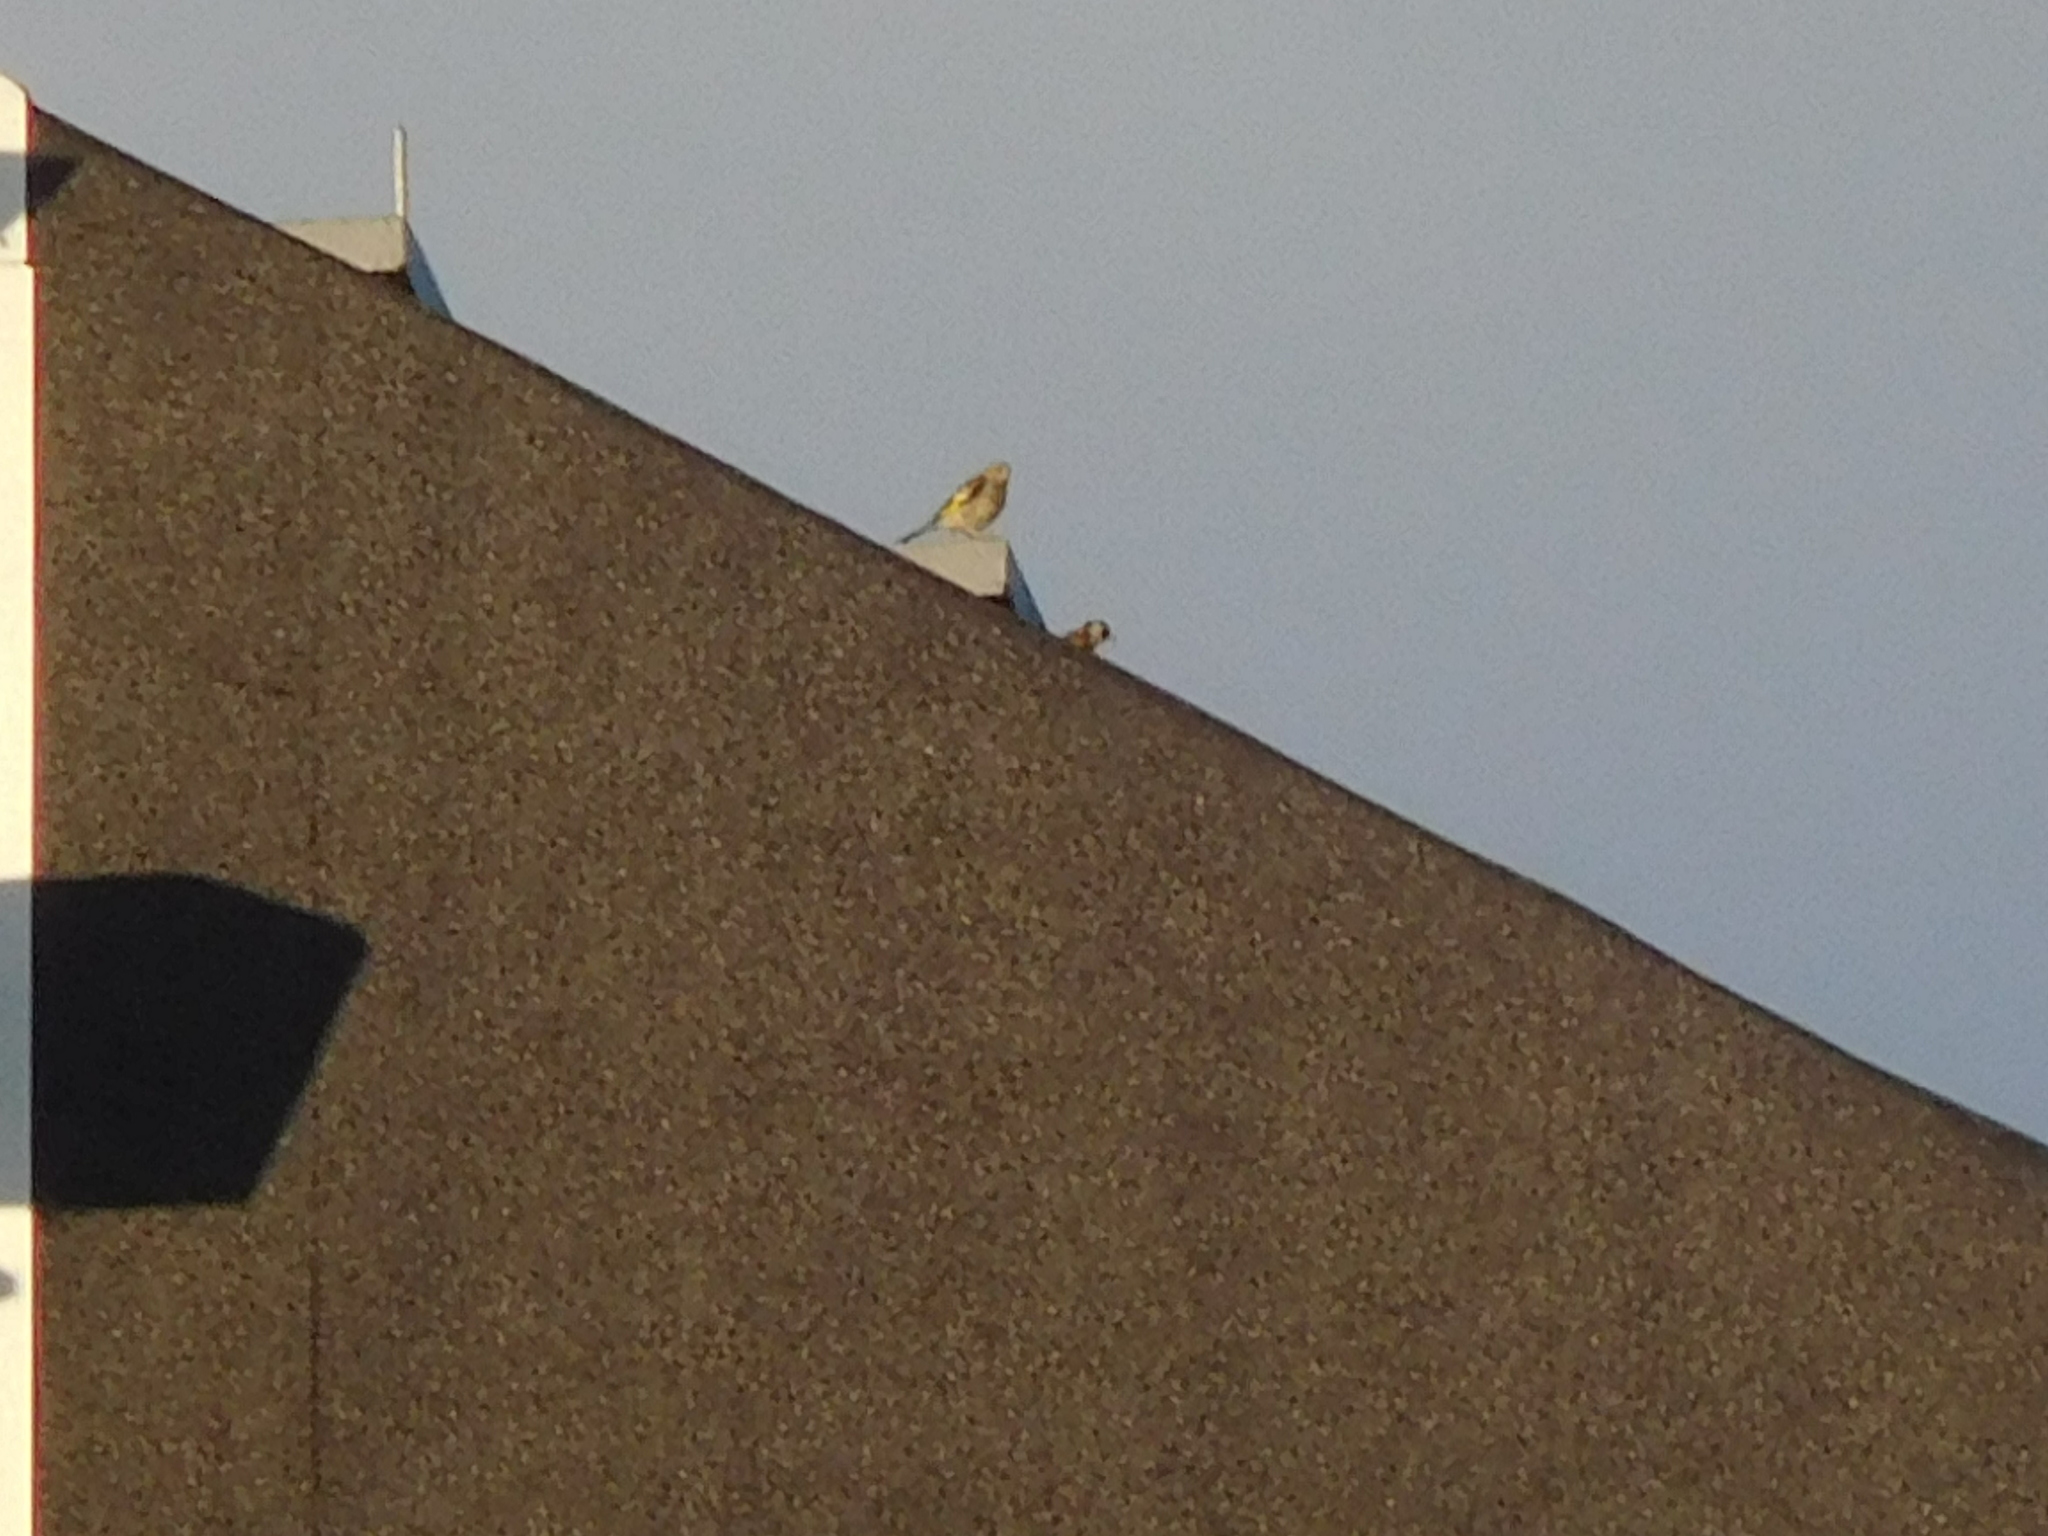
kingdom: Animalia
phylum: Chordata
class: Aves
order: Passeriformes
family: Fringillidae
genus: Carduelis
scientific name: Carduelis carduelis
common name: European goldfinch
